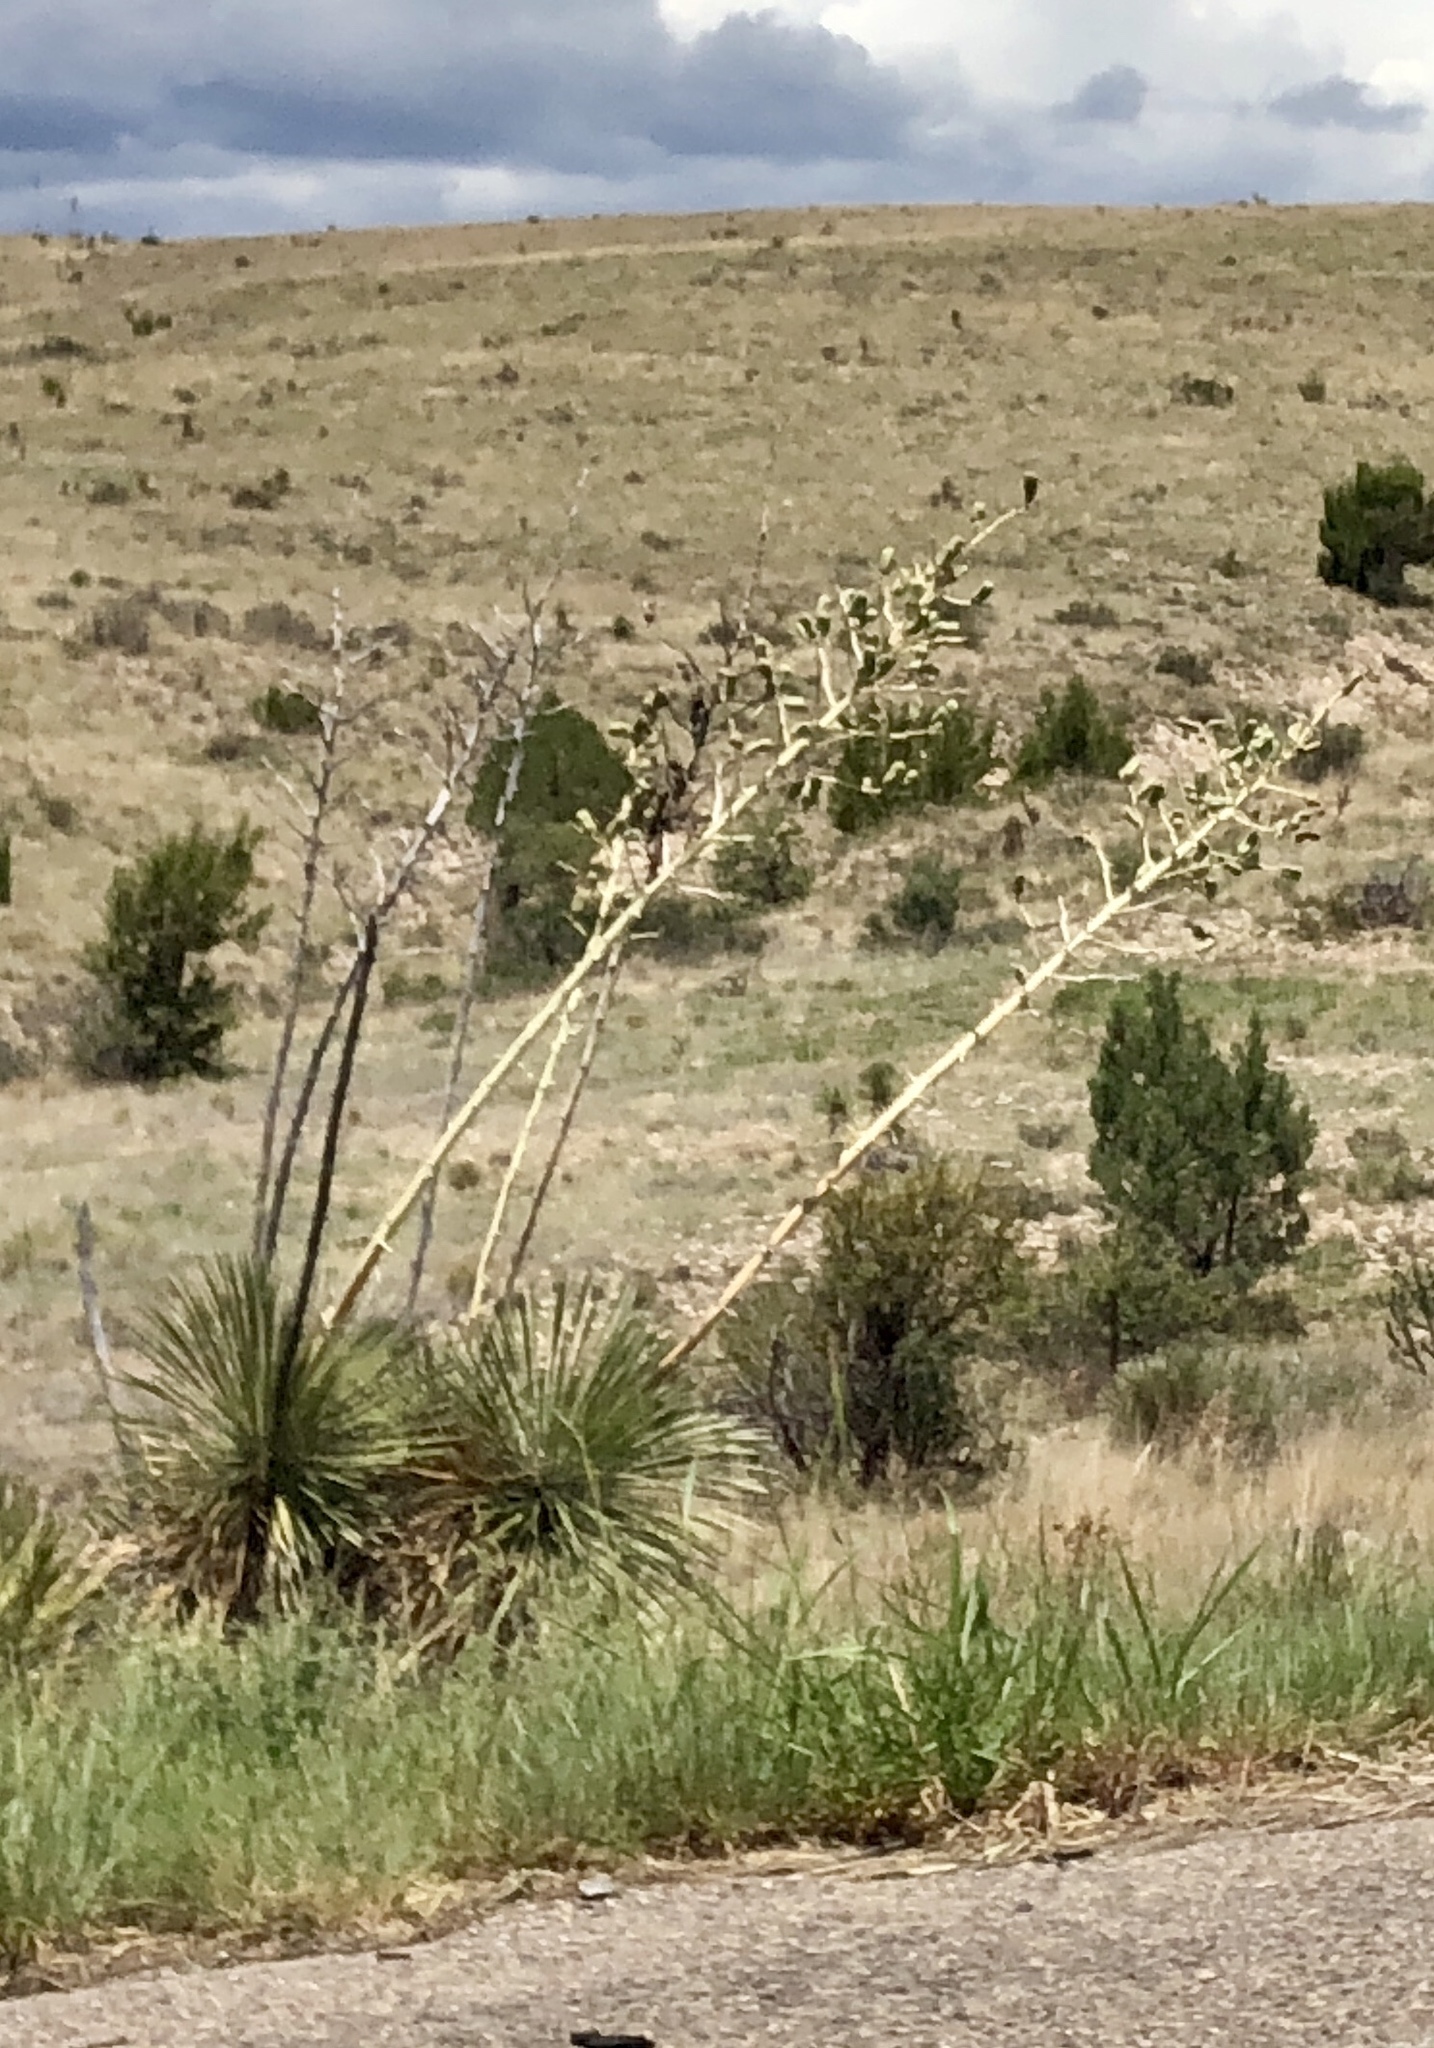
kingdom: Plantae
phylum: Tracheophyta
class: Liliopsida
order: Asparagales
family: Asparagaceae
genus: Yucca
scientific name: Yucca elata
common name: Palmella
